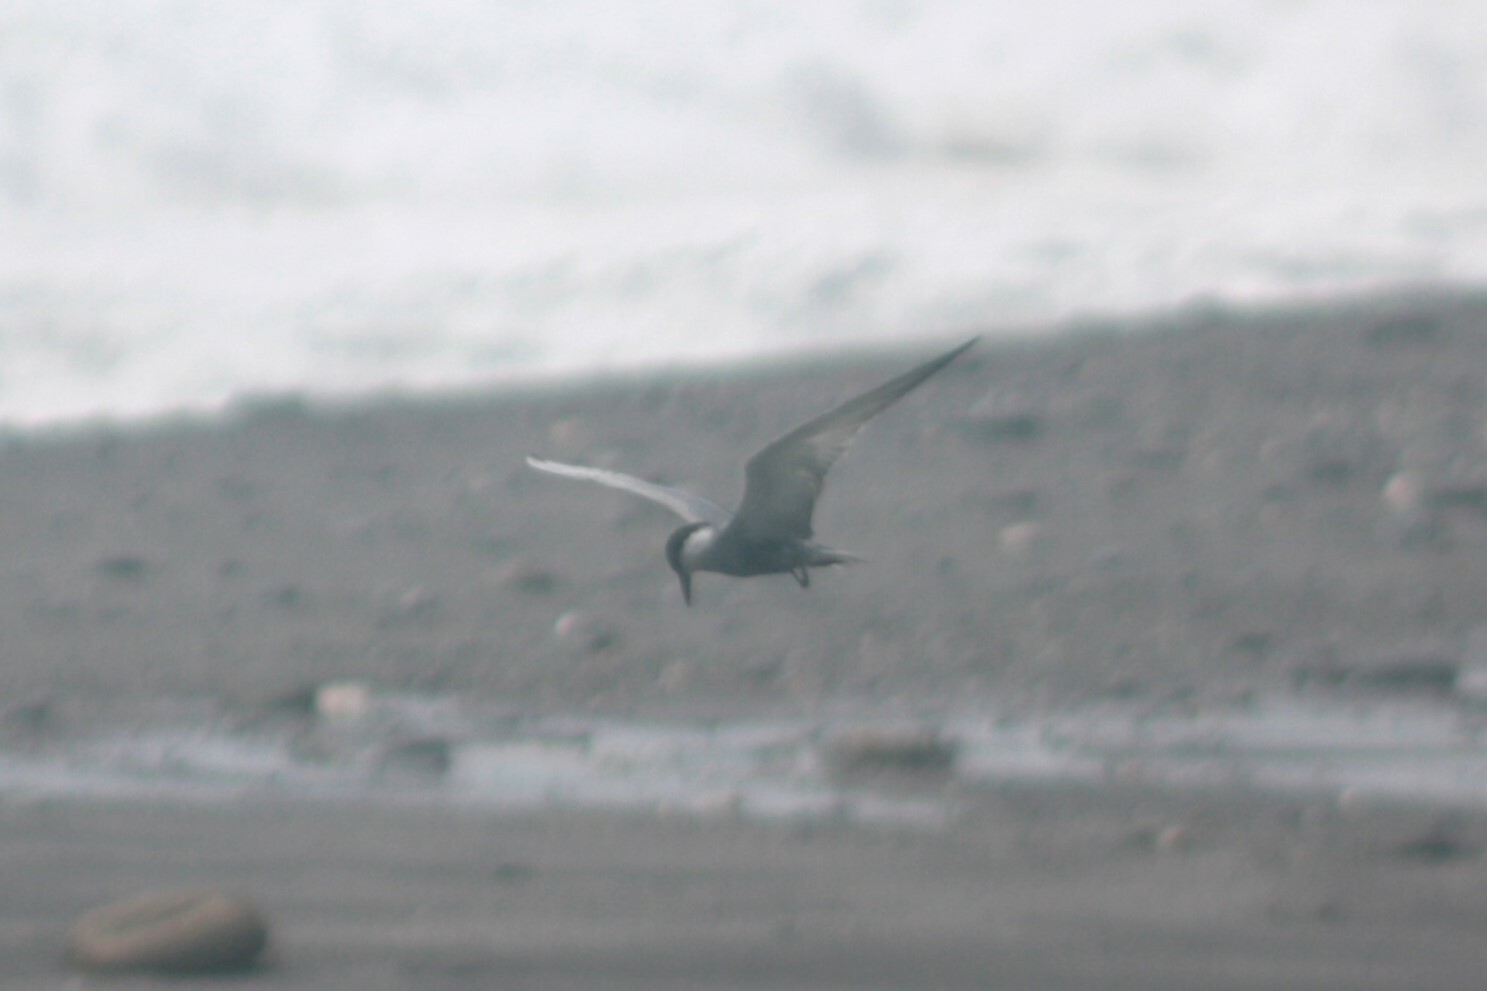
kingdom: Animalia
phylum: Chordata
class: Aves
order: Charadriiformes
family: Laridae
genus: Chlidonias
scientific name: Chlidonias hybrida
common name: Whiskered tern
